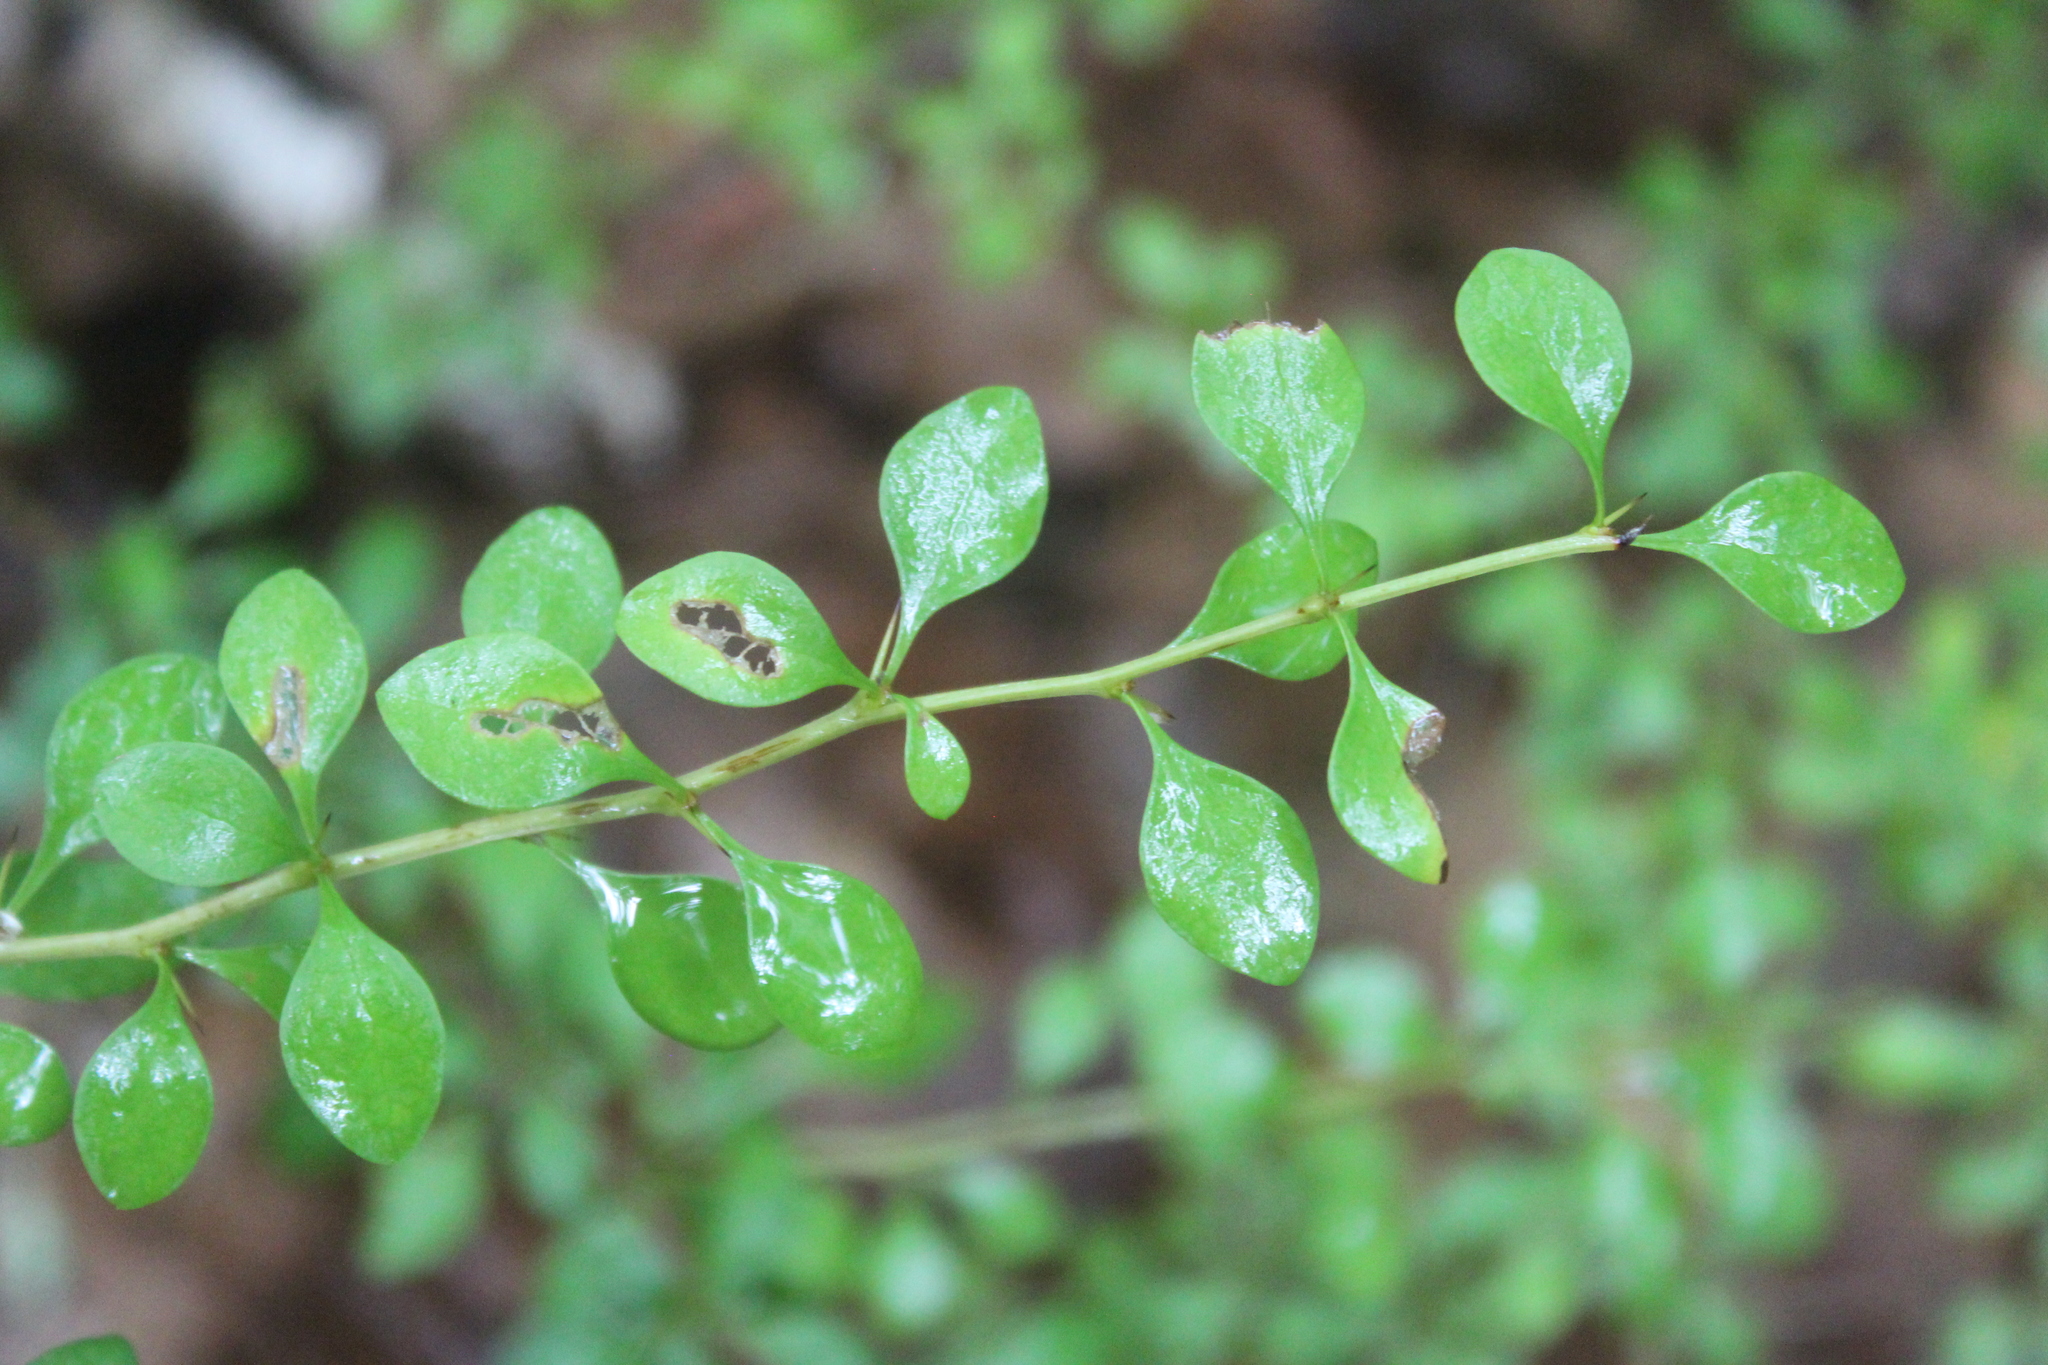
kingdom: Plantae
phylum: Tracheophyta
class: Magnoliopsida
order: Ranunculales
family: Berberidaceae
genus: Berberis
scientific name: Berberis thunbergii
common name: Japanese barberry
